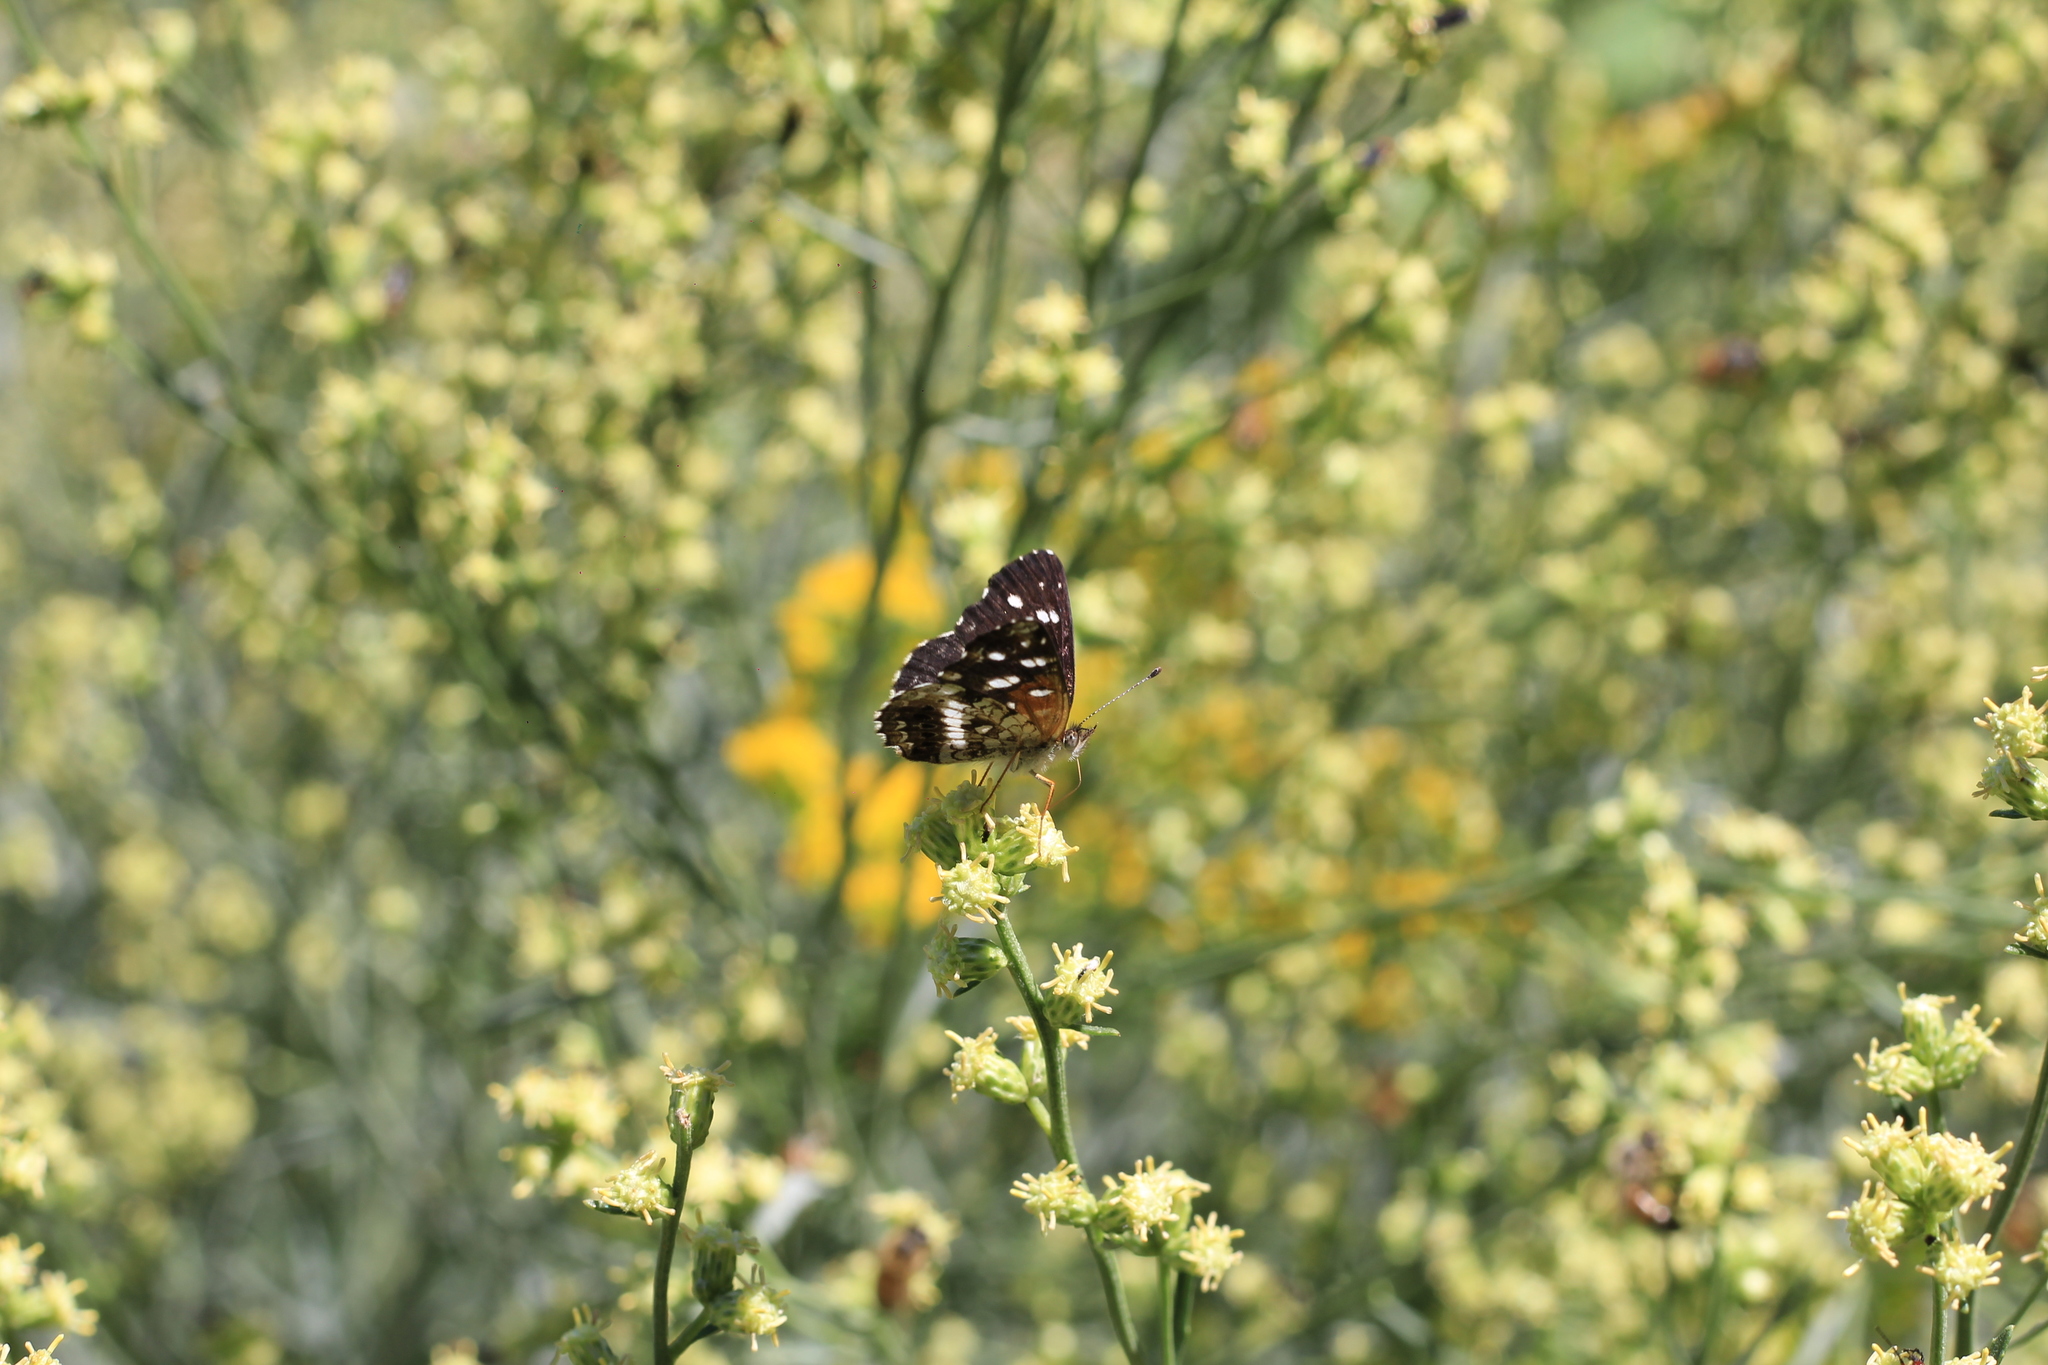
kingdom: Animalia
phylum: Arthropoda
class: Insecta
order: Lepidoptera
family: Nymphalidae
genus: Ortilia
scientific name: Ortilia ithra
